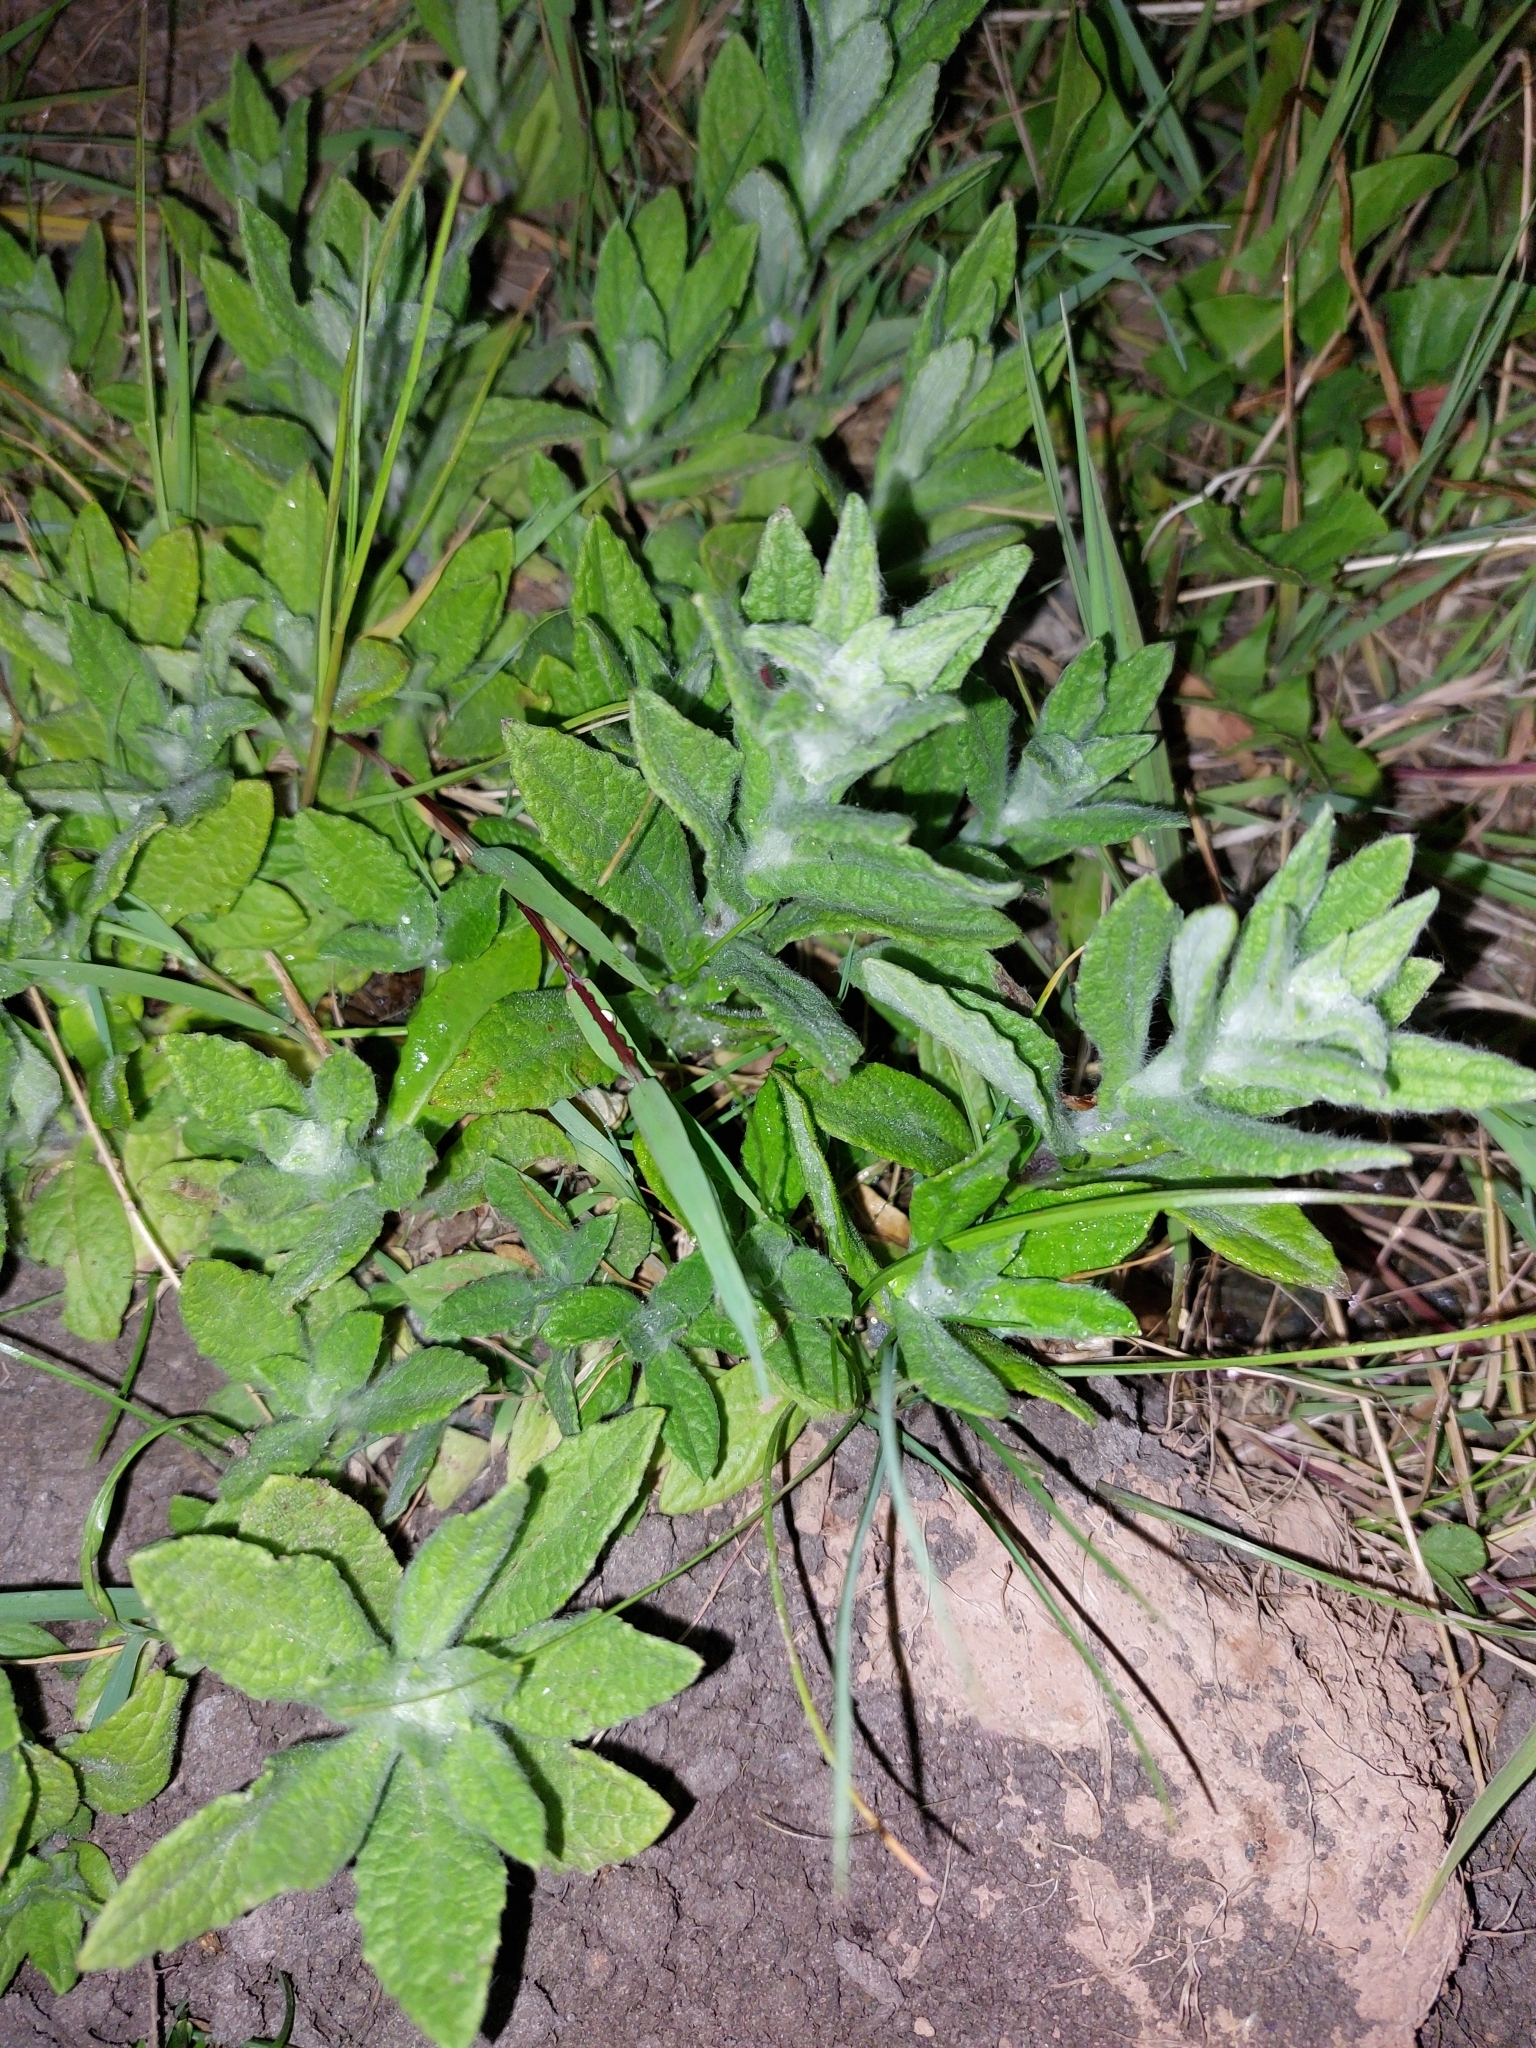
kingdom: Plantae
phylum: Tracheophyta
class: Magnoliopsida
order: Asterales
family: Asteraceae
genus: Pulicaria
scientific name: Pulicaria dysenterica
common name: Common fleabane
